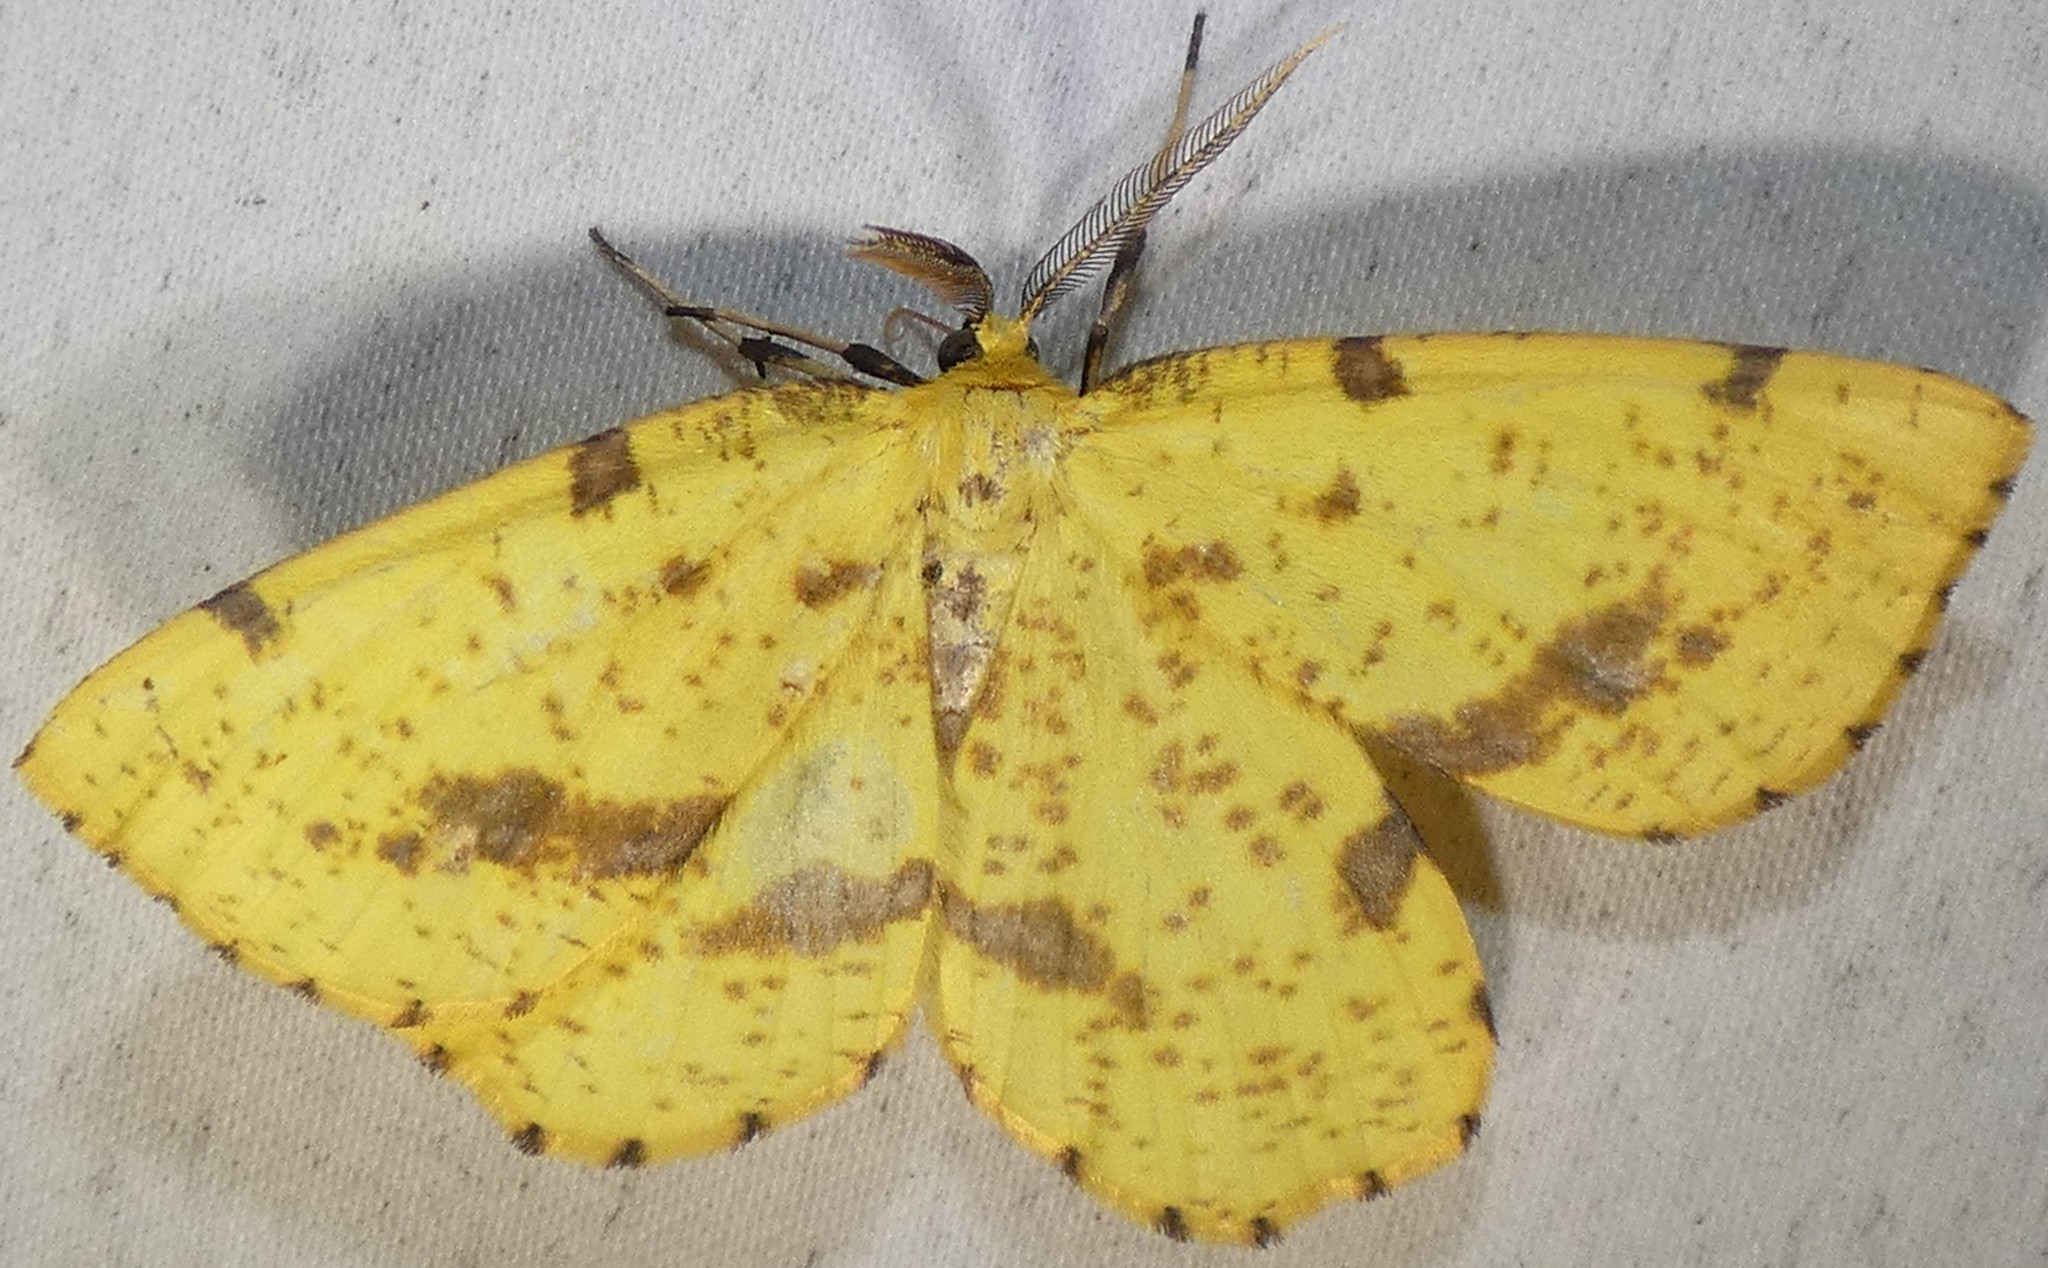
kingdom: Animalia
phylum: Arthropoda
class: Insecta
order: Lepidoptera
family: Geometridae
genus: Xanthotype
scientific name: Xanthotype
